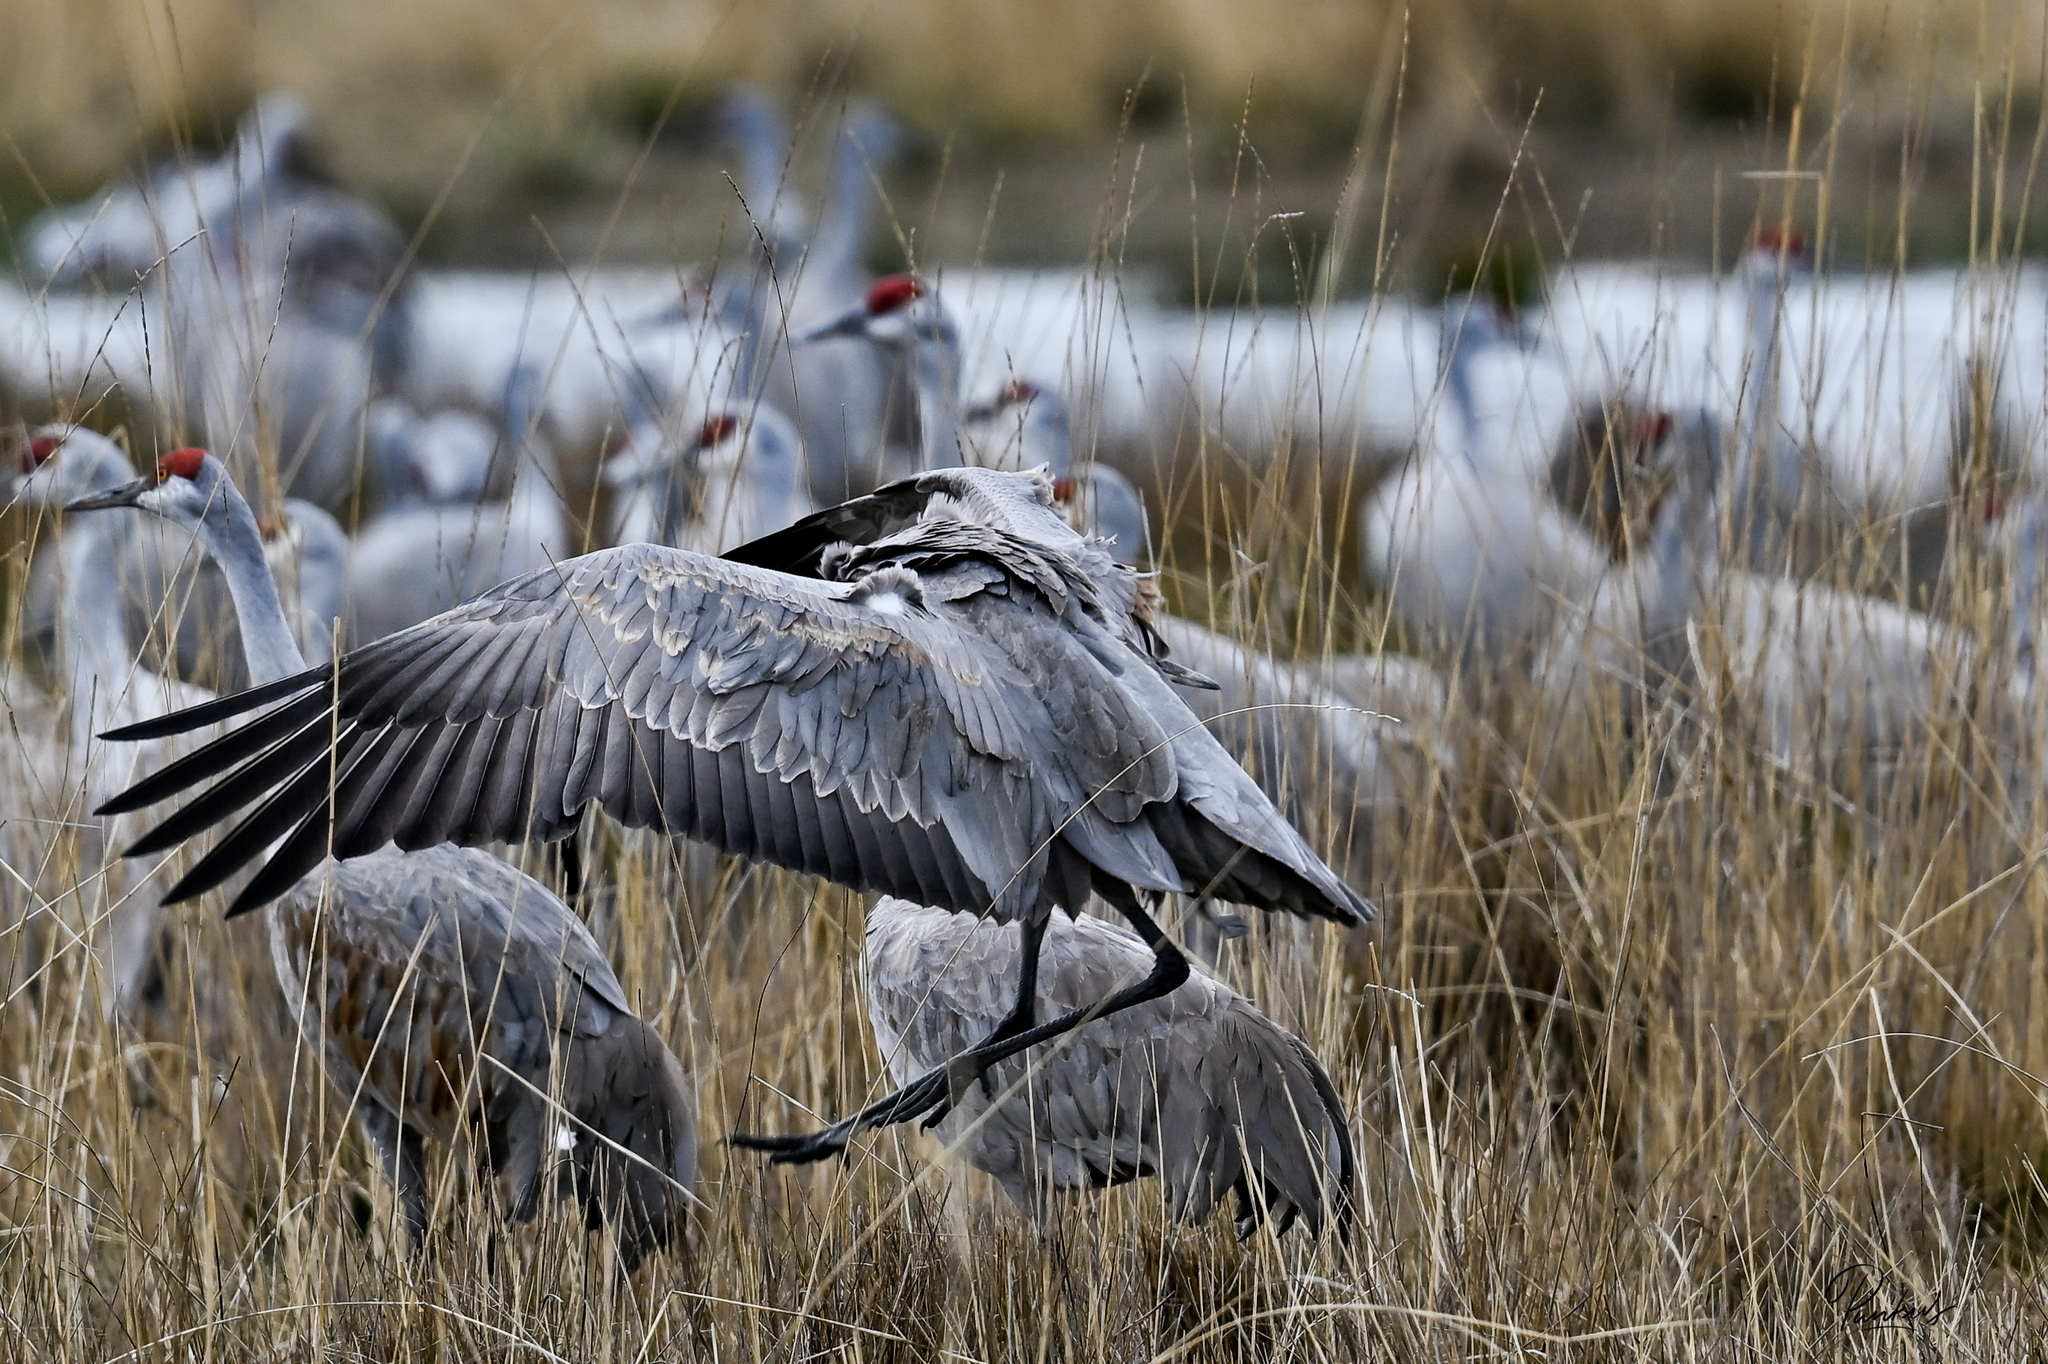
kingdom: Animalia
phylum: Chordata
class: Aves
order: Gruiformes
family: Gruidae
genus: Grus
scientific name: Grus canadensis
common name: Sandhill crane
